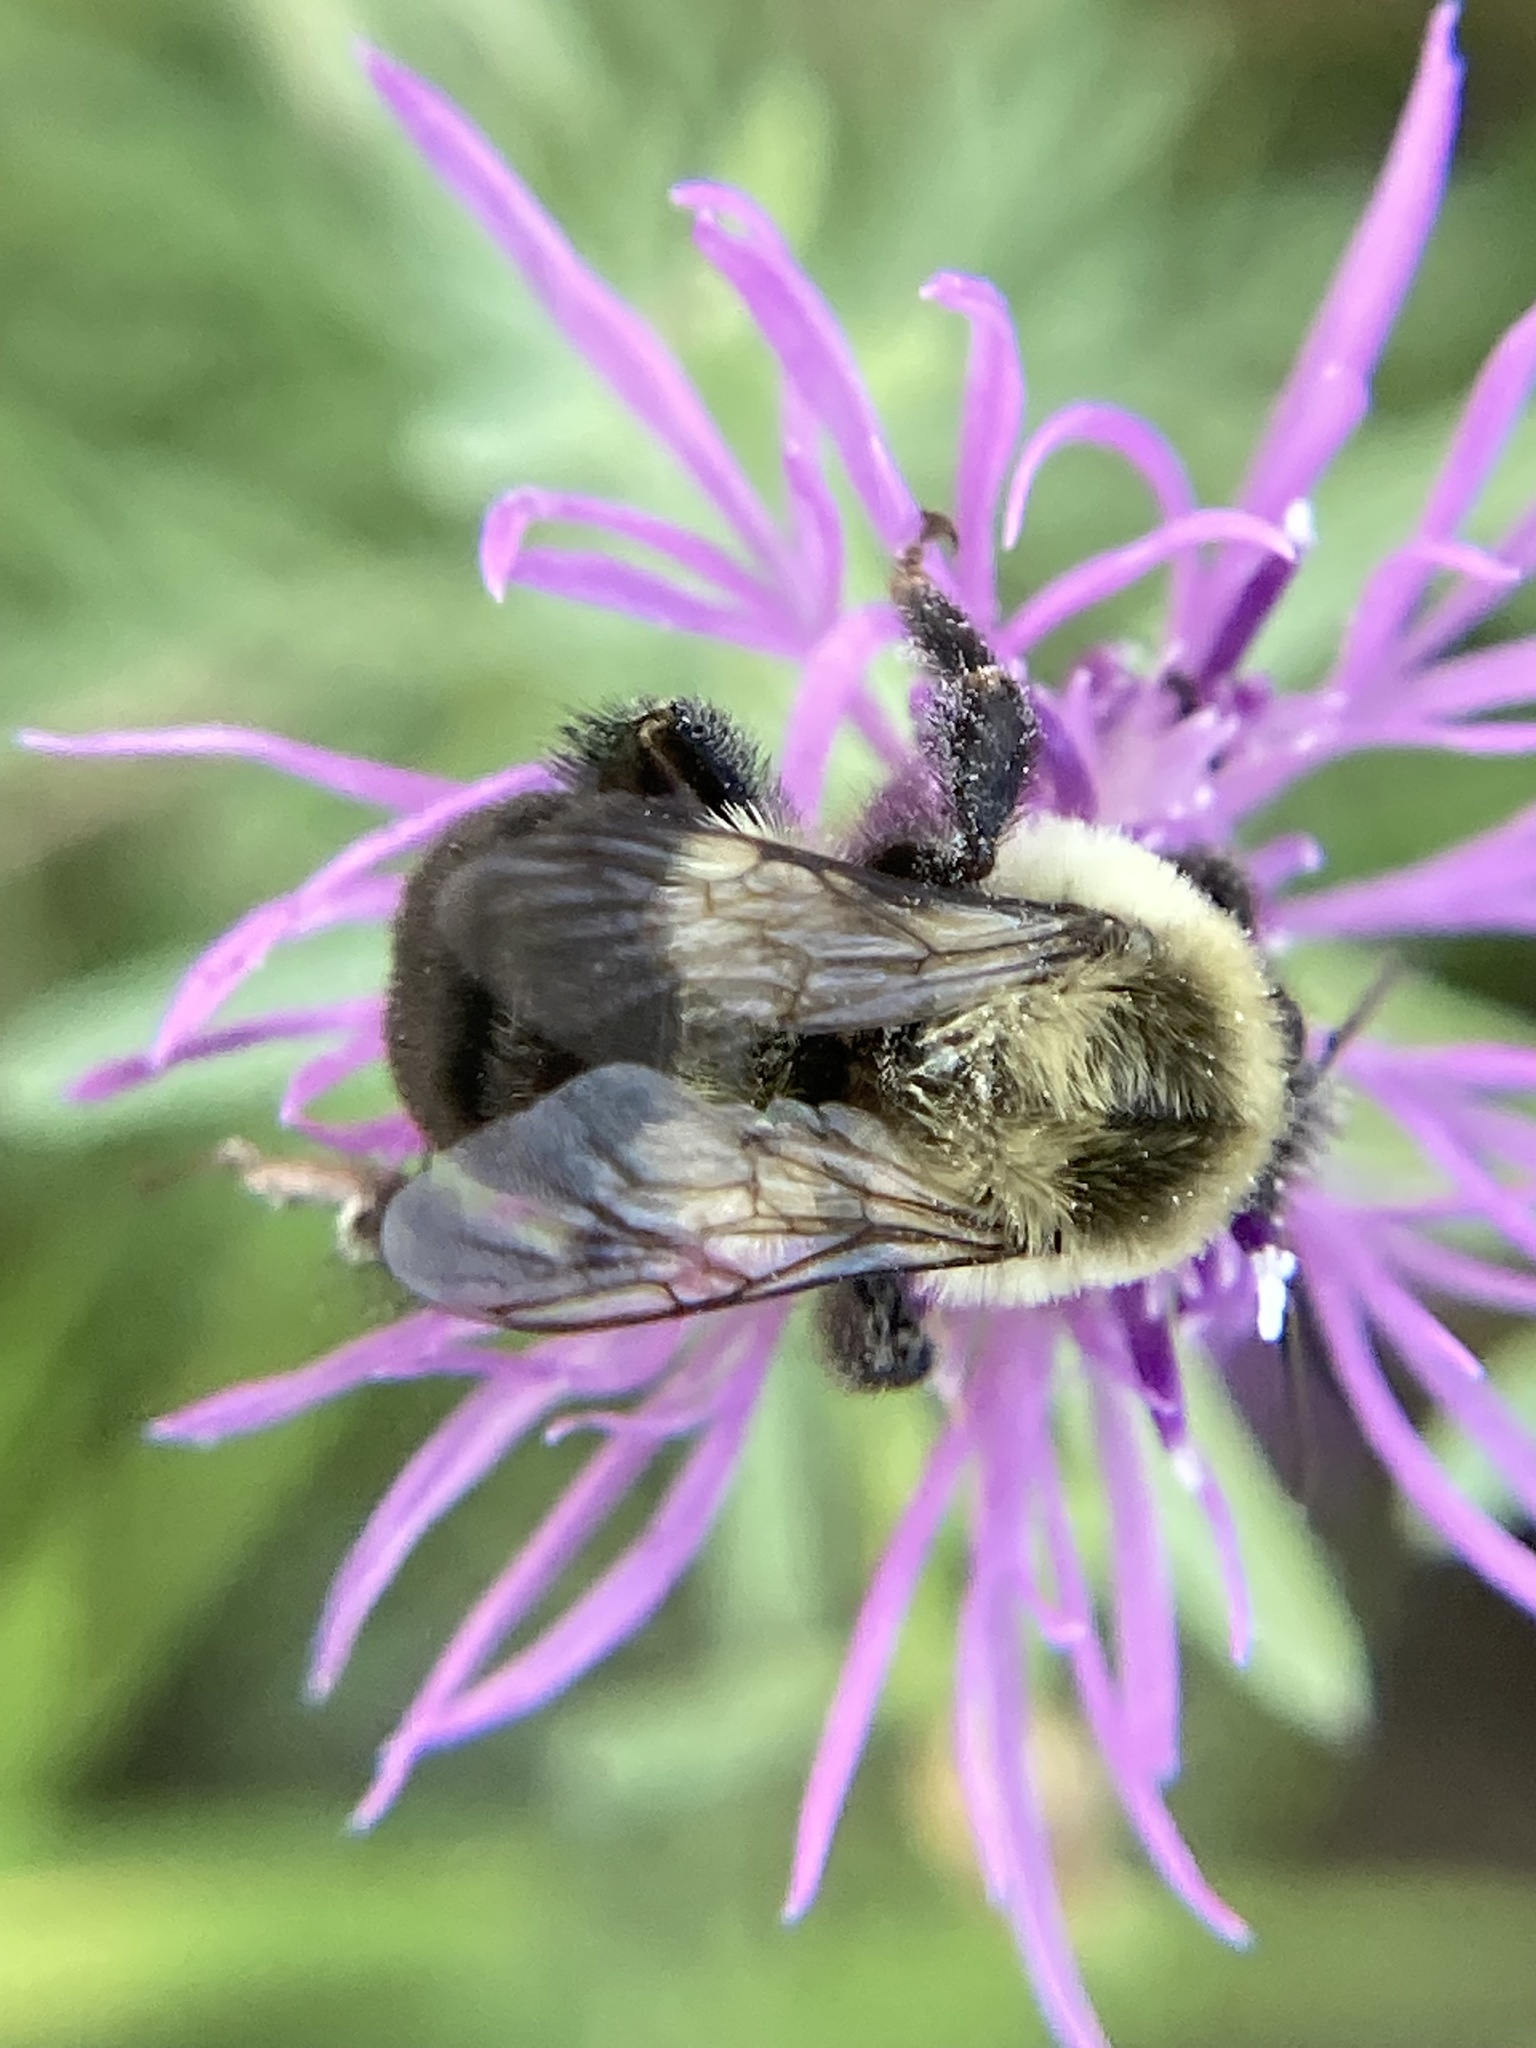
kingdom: Animalia
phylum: Arthropoda
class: Insecta
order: Hymenoptera
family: Apidae
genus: Bombus
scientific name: Bombus impatiens
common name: Common eastern bumble bee
